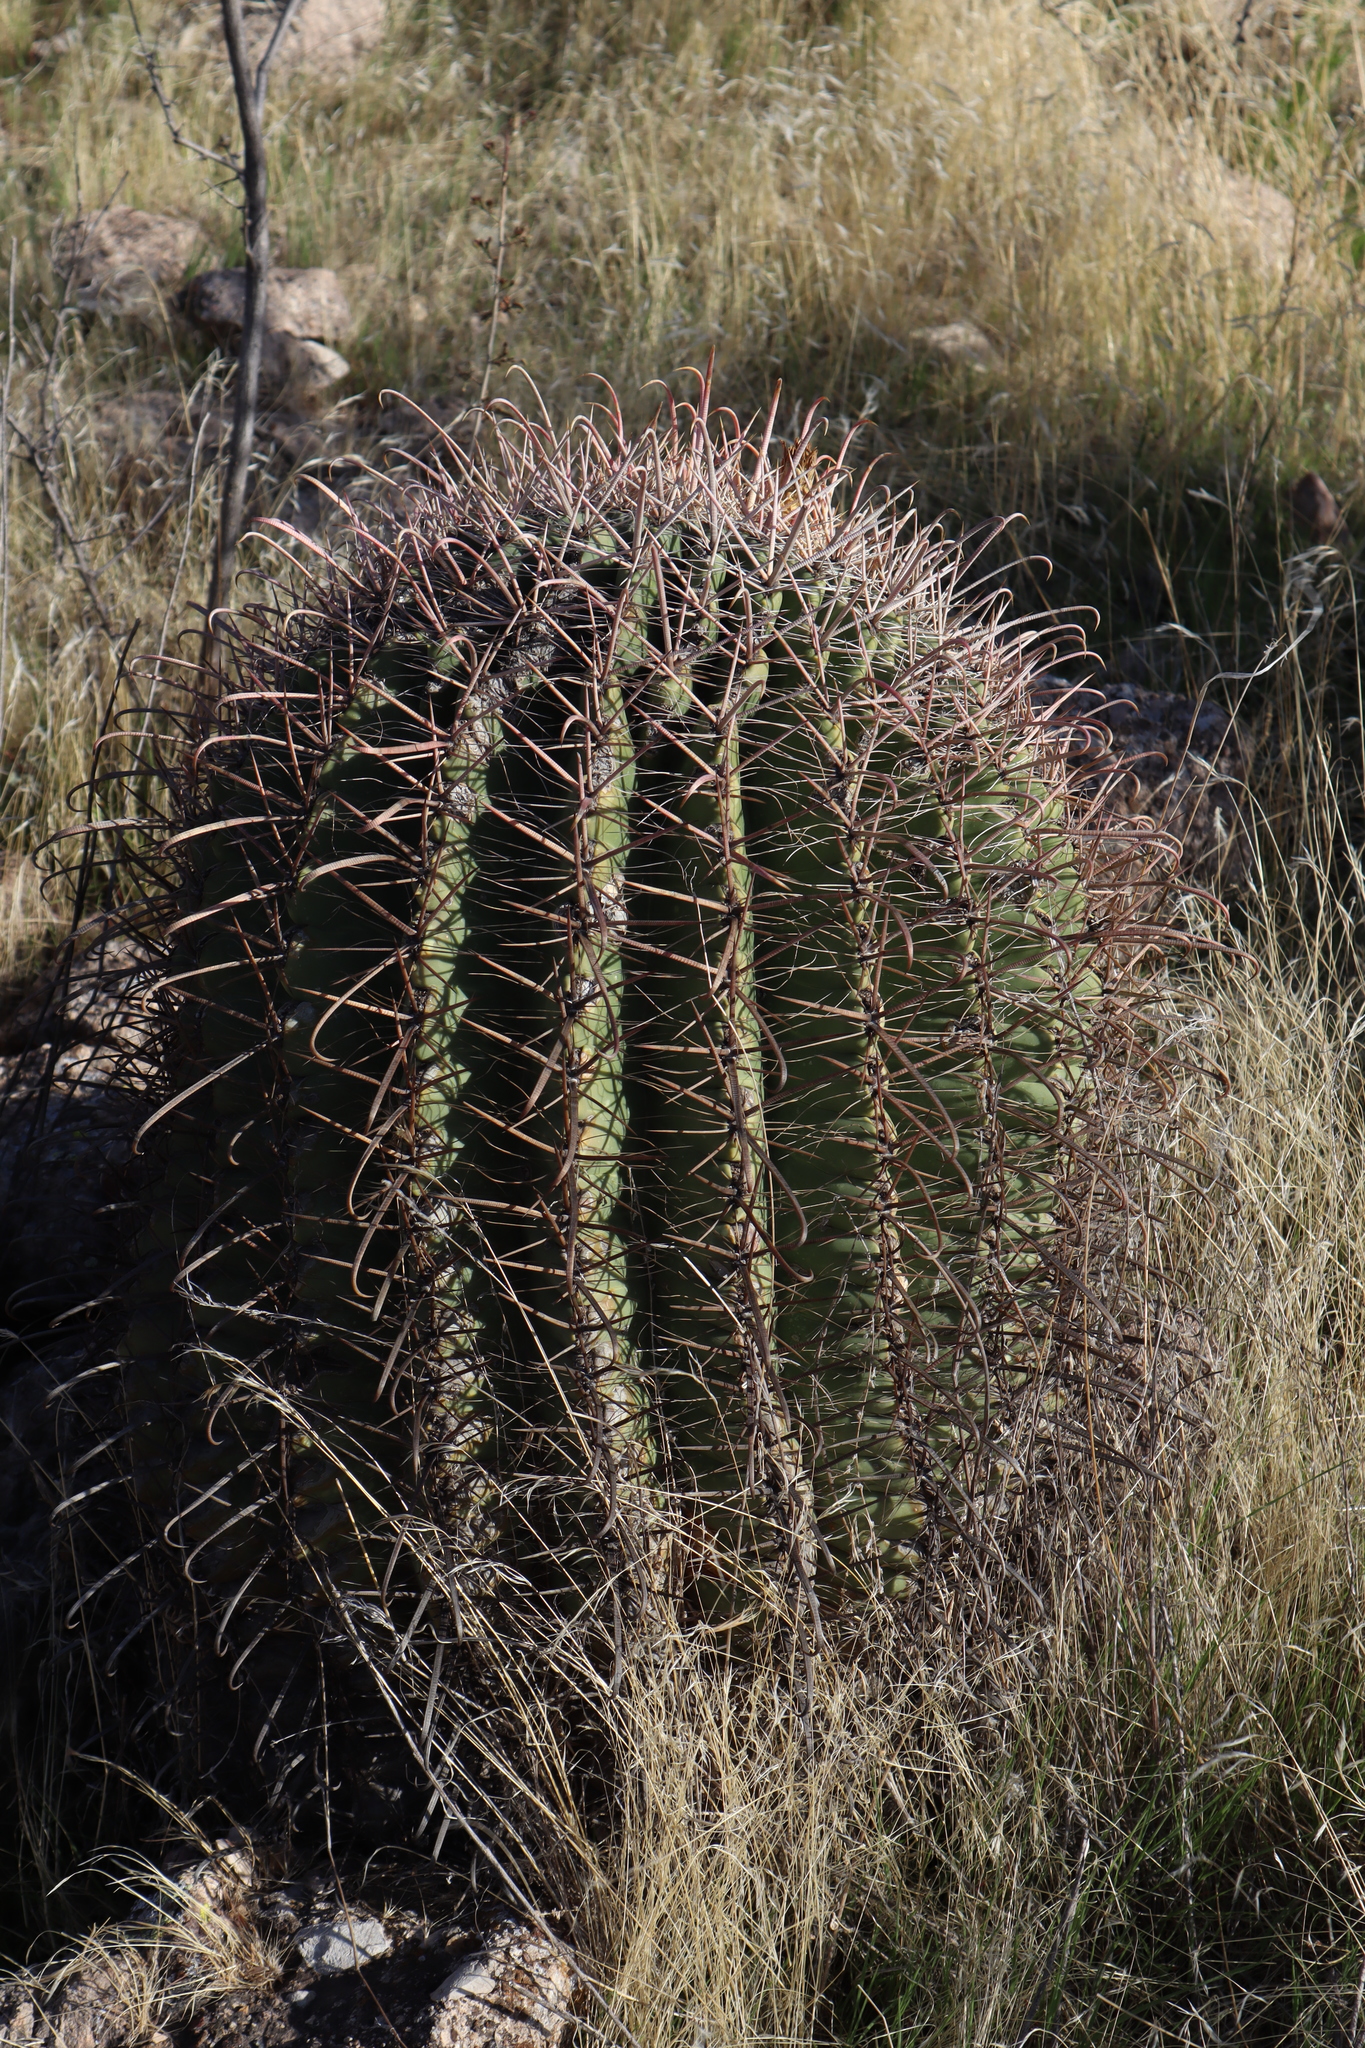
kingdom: Plantae
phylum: Tracheophyta
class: Magnoliopsida
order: Caryophyllales
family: Cactaceae
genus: Ferocactus
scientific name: Ferocactus wislizeni
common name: Candy barrel cactus
